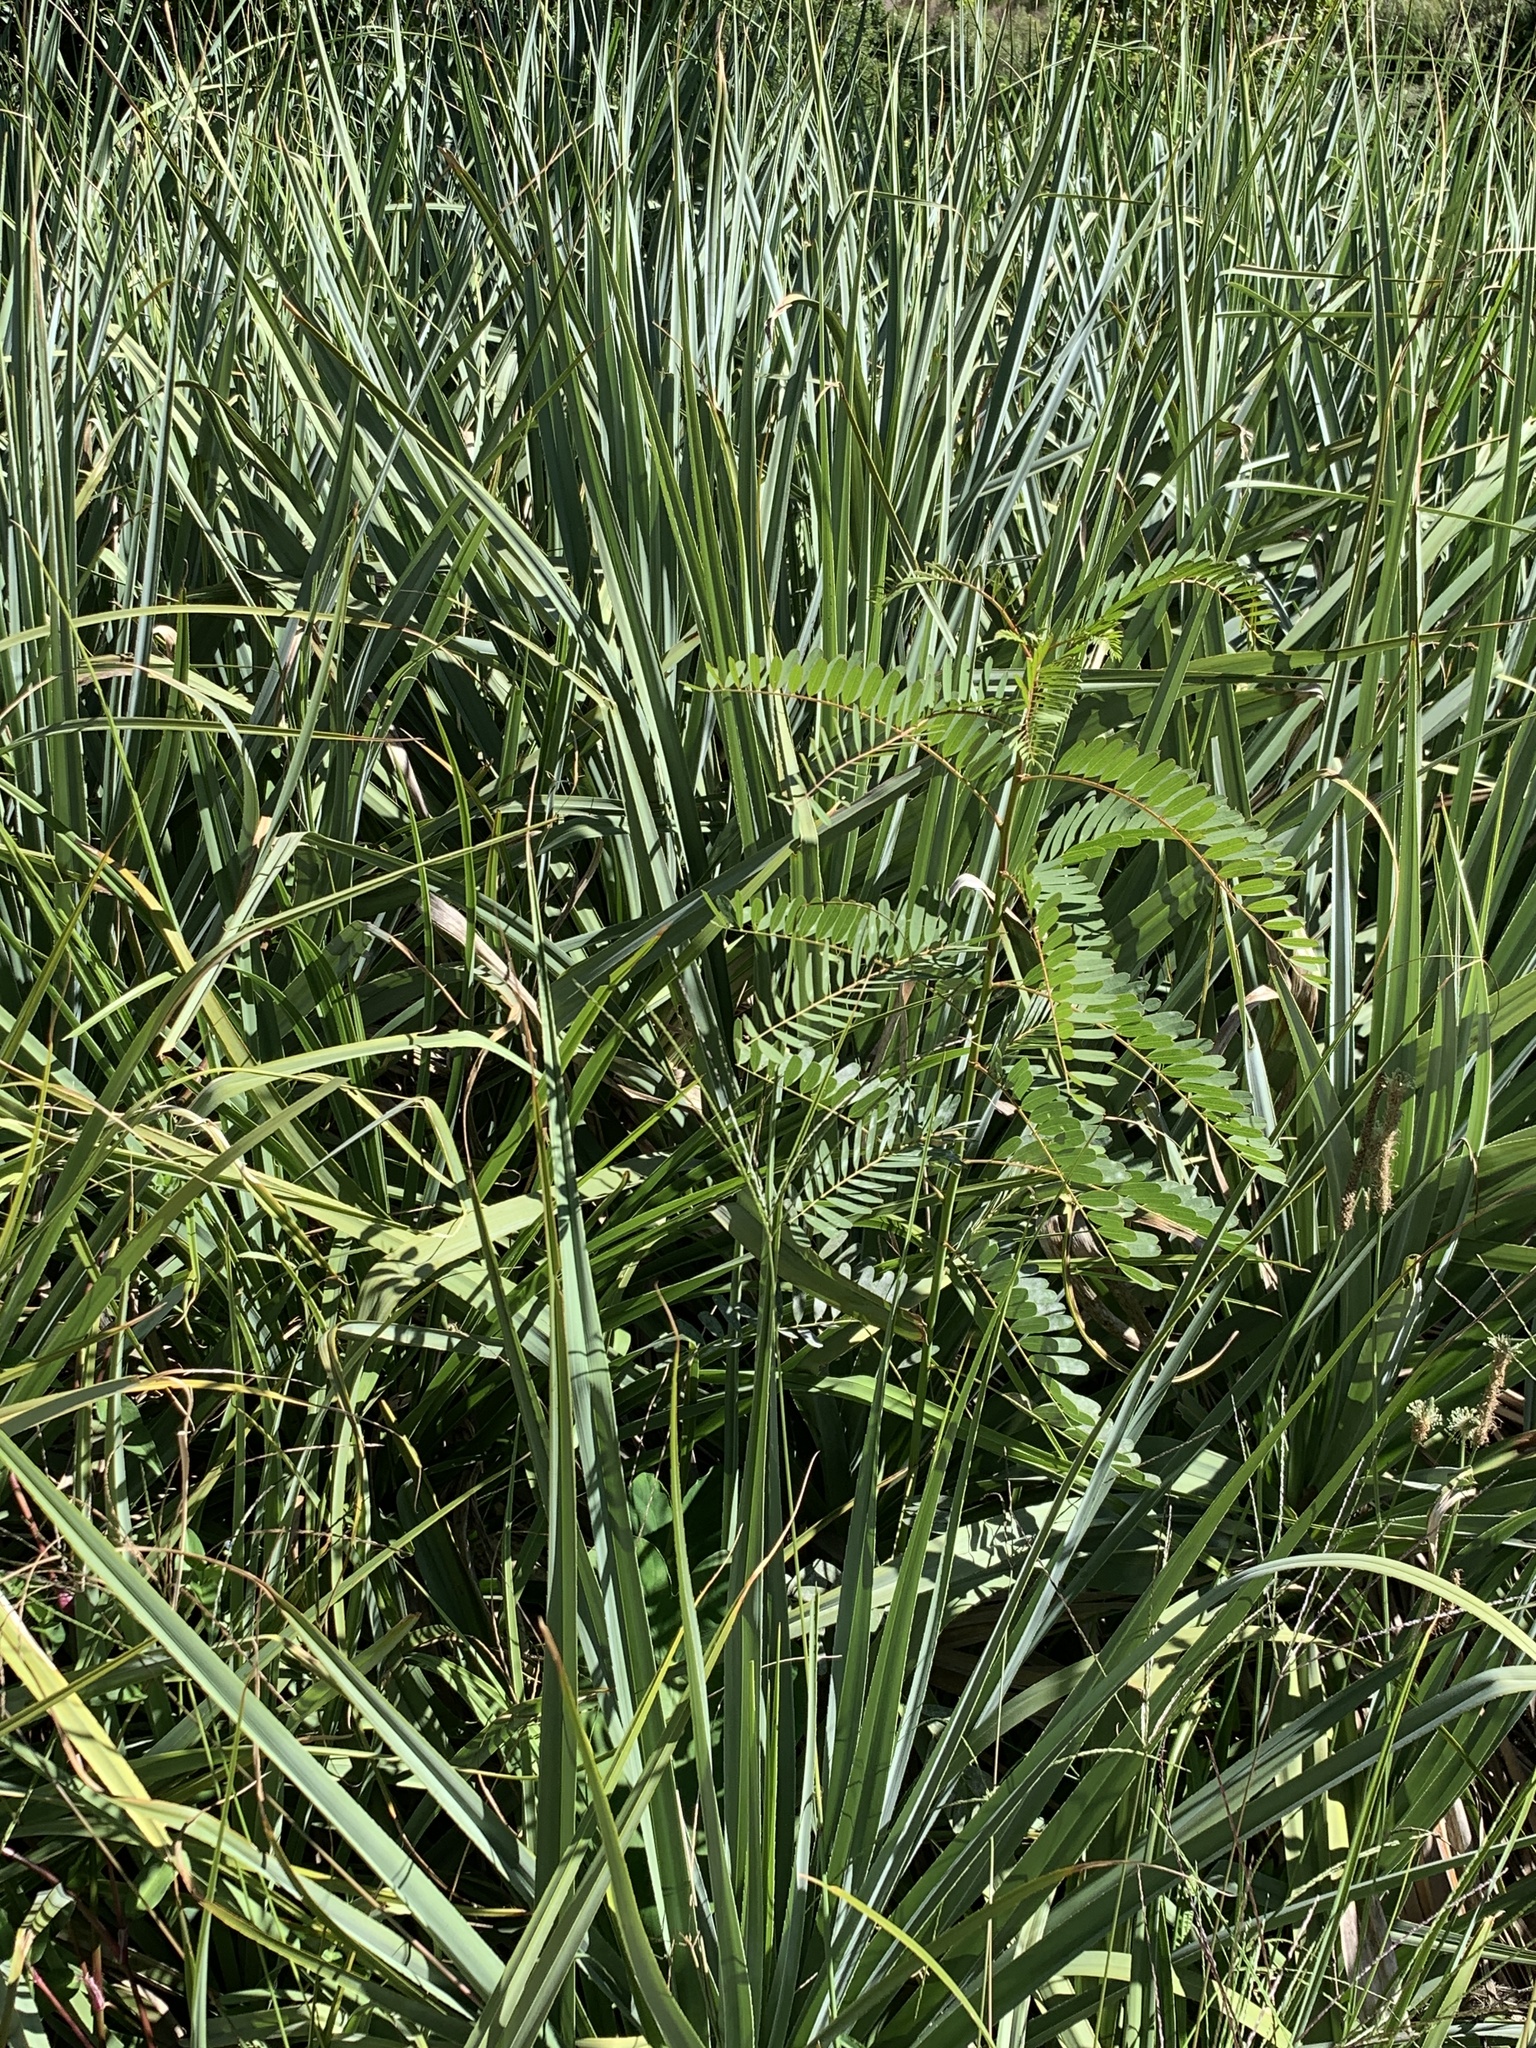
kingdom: Plantae
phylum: Tracheophyta
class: Magnoliopsida
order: Fabales
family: Fabaceae
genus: Sesbania
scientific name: Sesbania punicea
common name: Rattlebox
